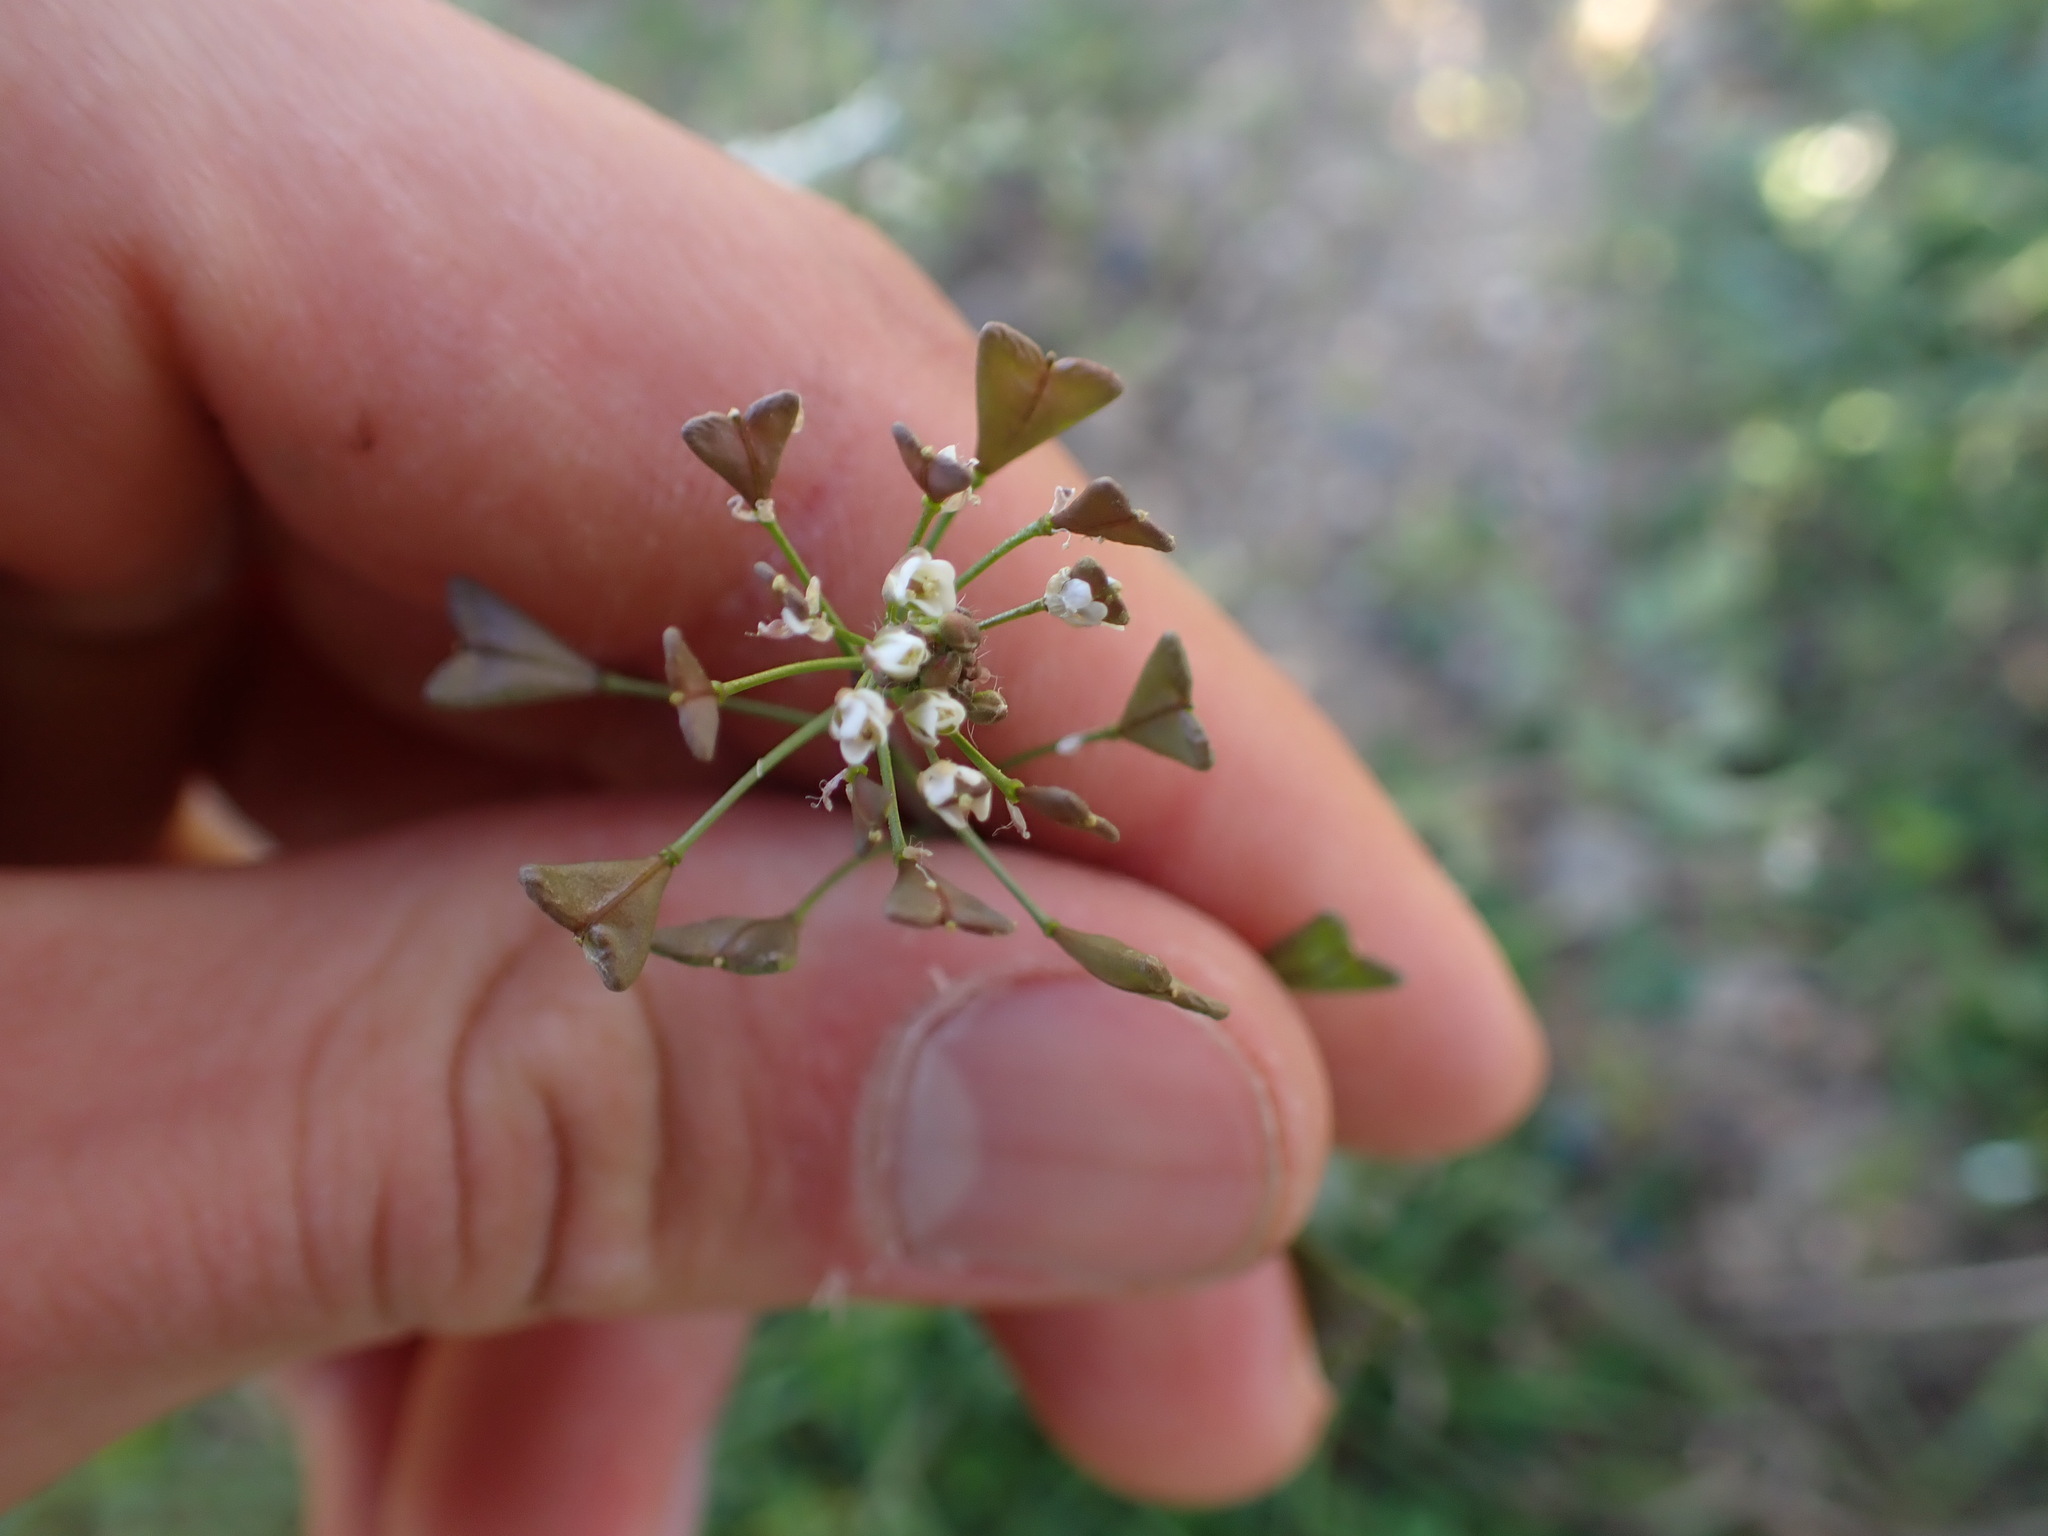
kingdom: Plantae
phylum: Tracheophyta
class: Magnoliopsida
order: Brassicales
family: Brassicaceae
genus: Capsella
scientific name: Capsella bursa-pastoris
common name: Shepherd's purse
